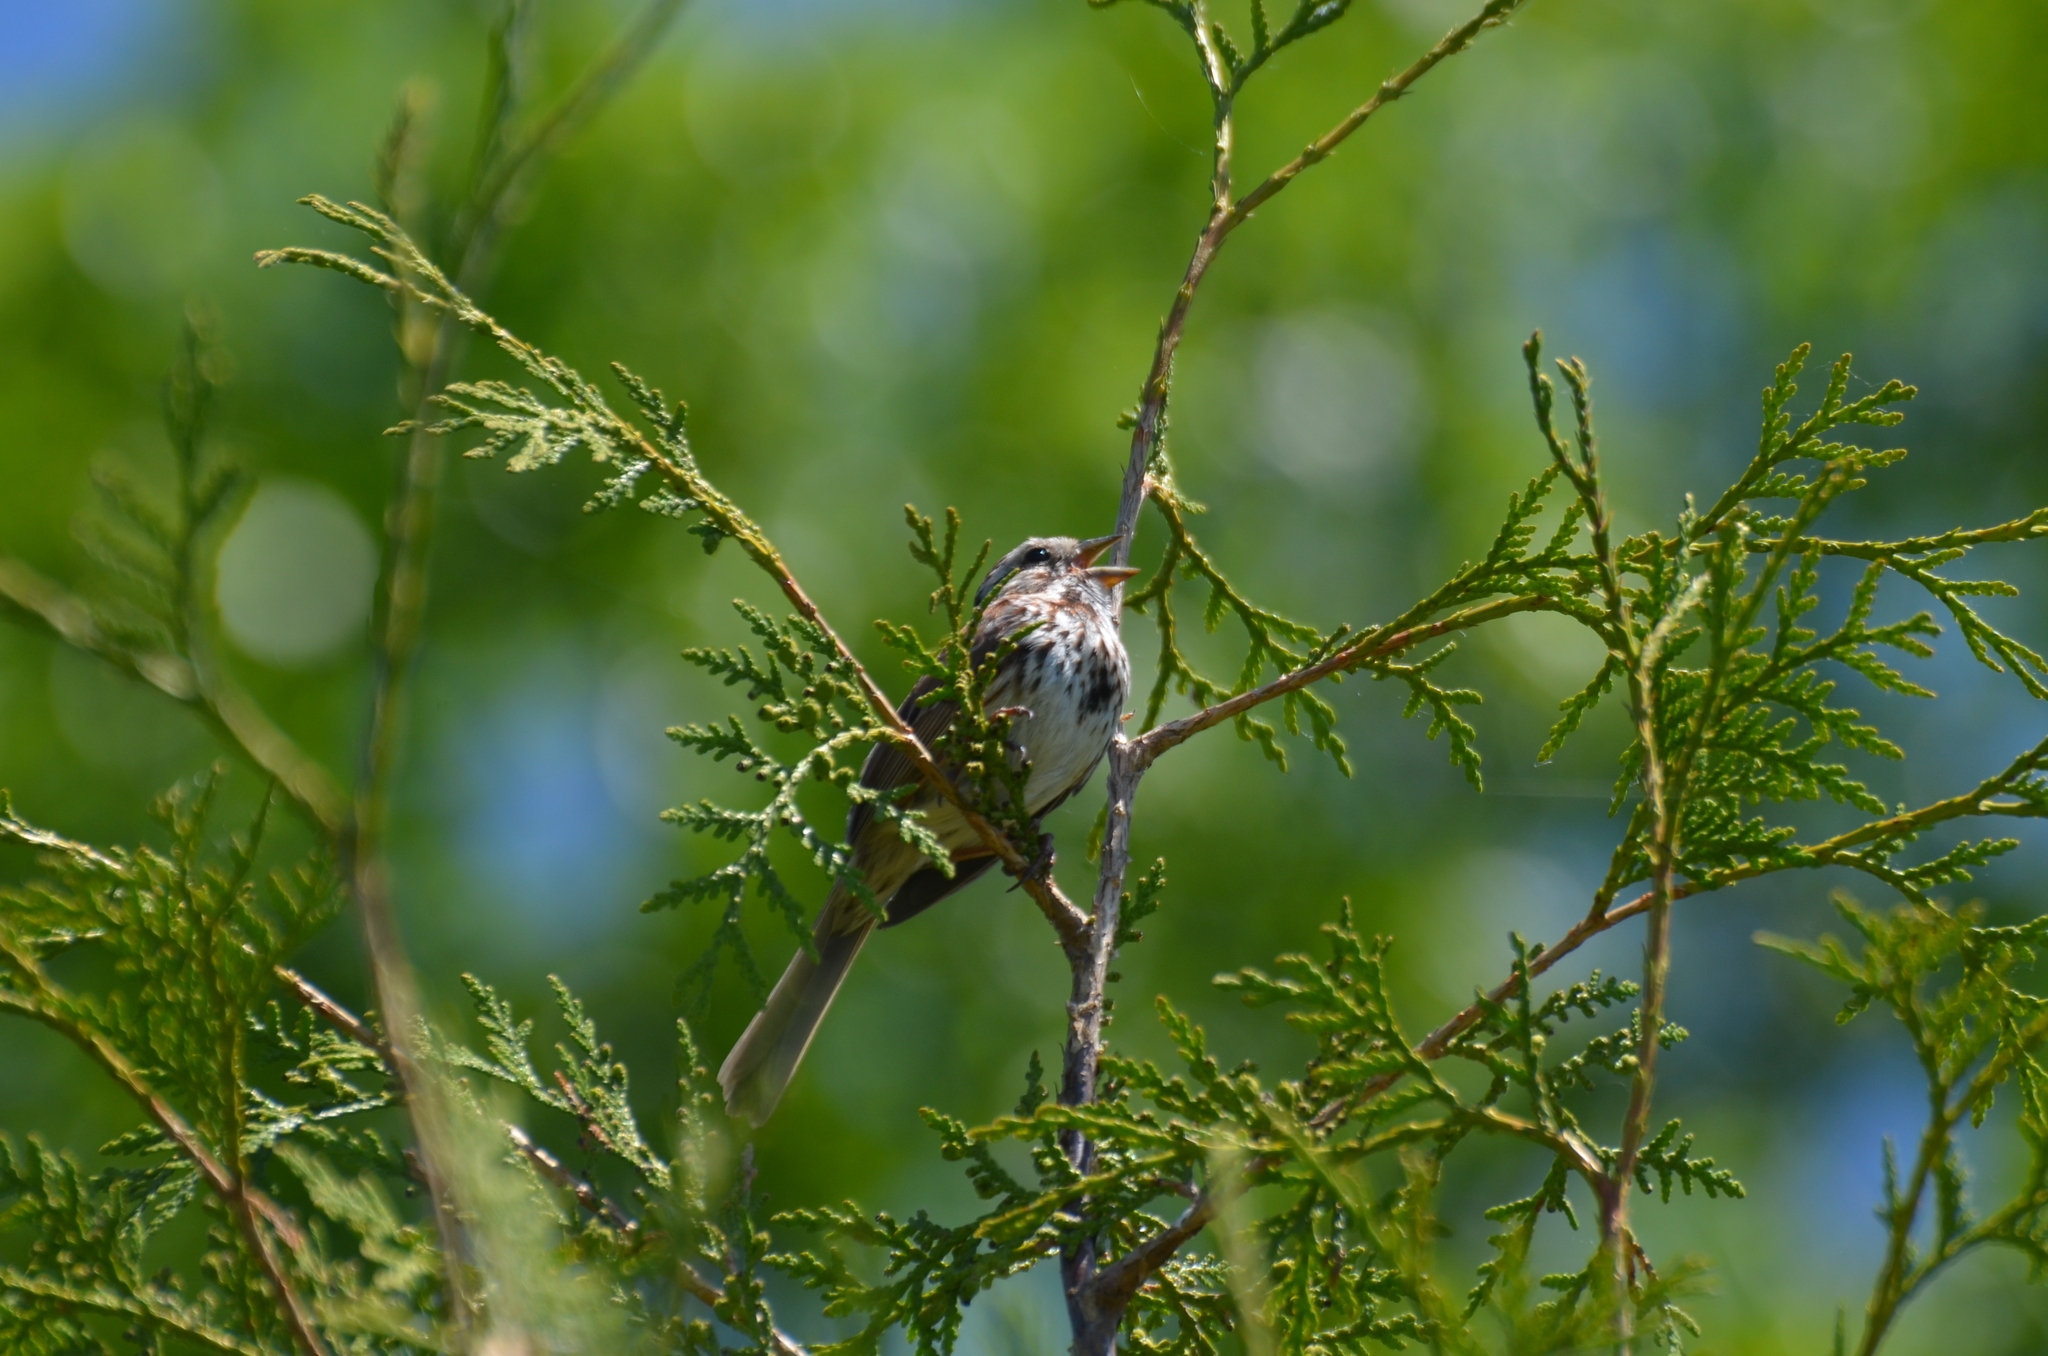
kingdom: Animalia
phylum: Chordata
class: Aves
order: Passeriformes
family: Passerellidae
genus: Melospiza
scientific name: Melospiza melodia
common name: Song sparrow
